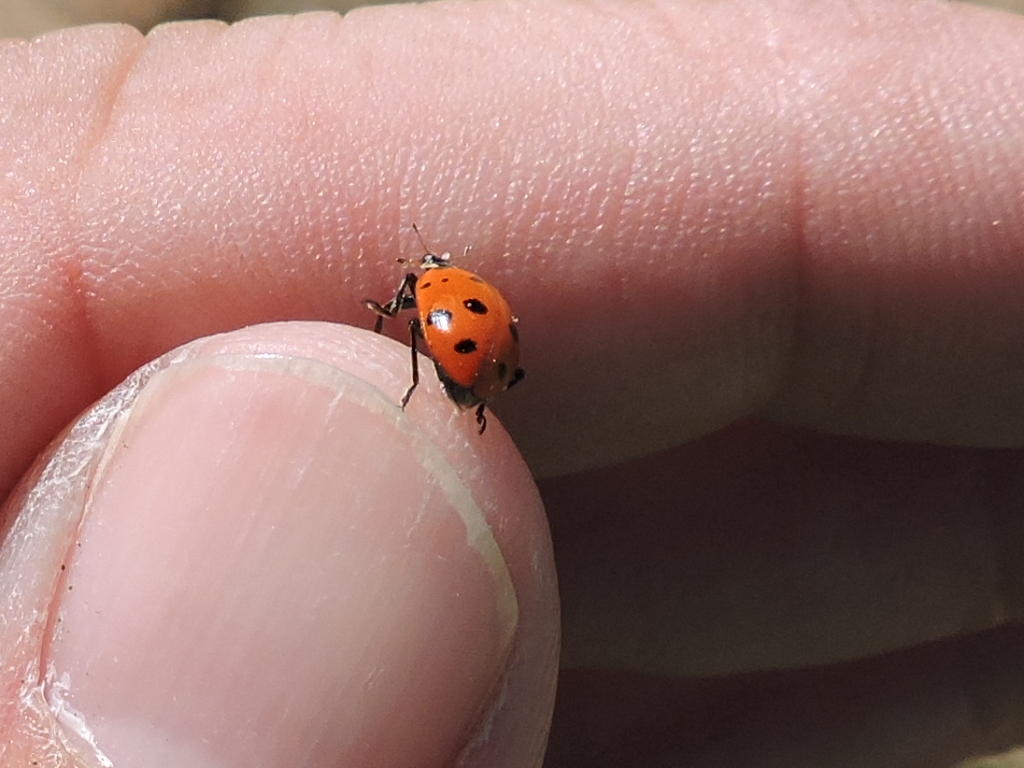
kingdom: Animalia
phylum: Arthropoda
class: Insecta
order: Coleoptera
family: Coccinellidae
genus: Hippodamia
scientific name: Hippodamia convergens
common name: Convergent lady beetle
